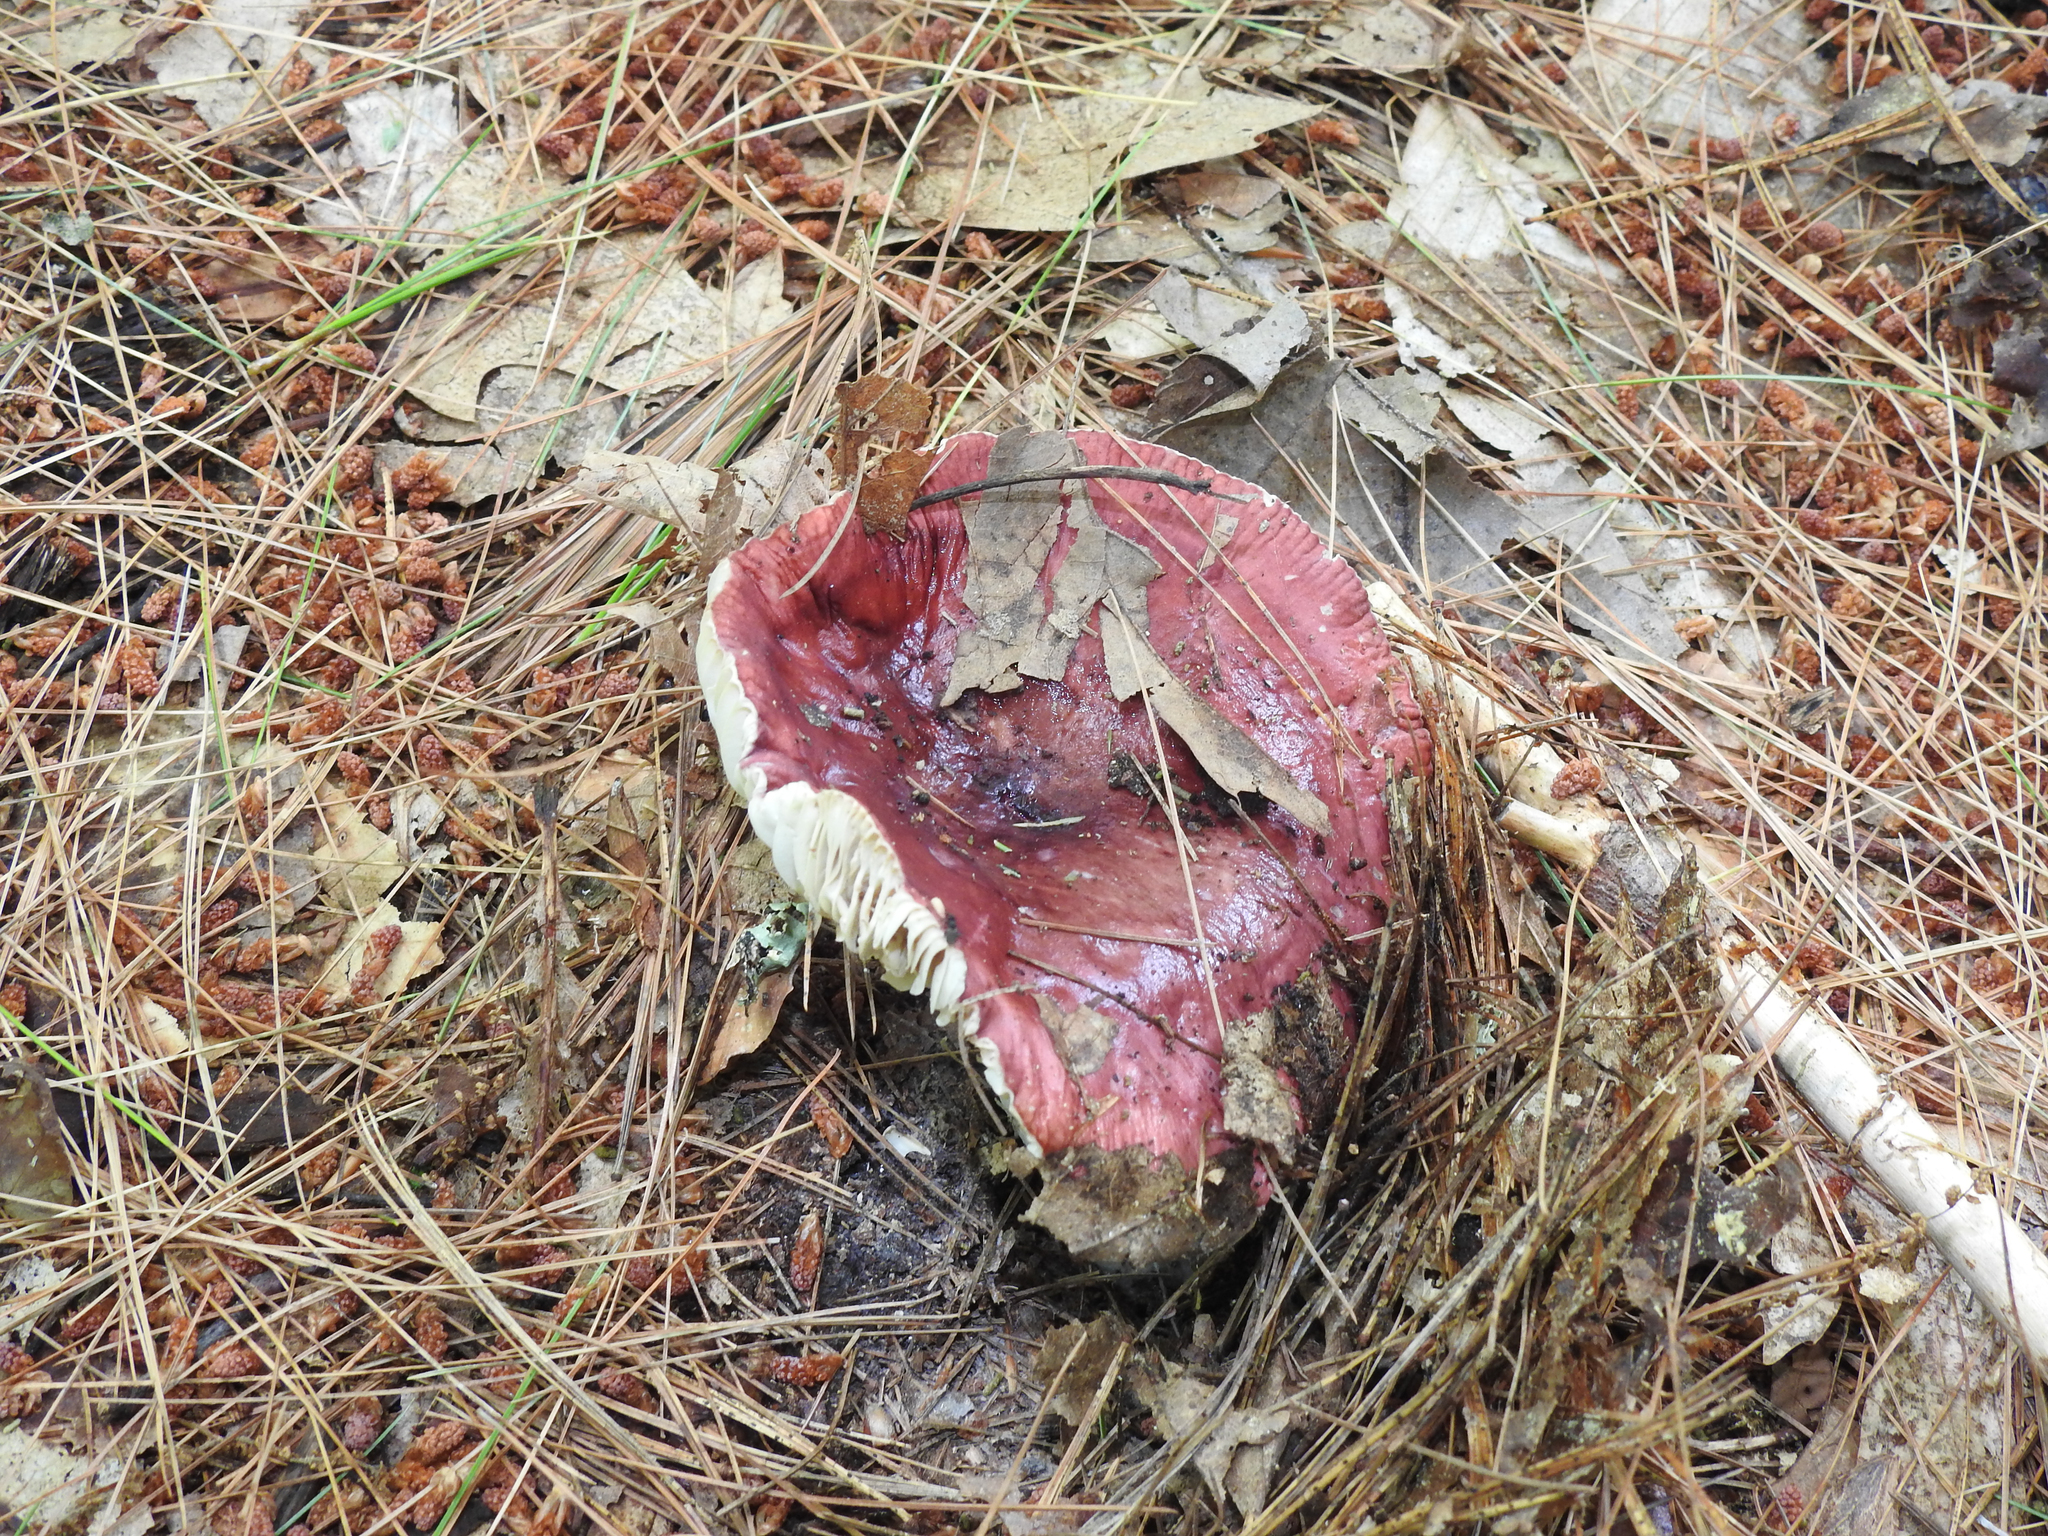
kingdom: Fungi
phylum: Basidiomycota
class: Agaricomycetes
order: Russulales
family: Russulaceae
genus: Russula
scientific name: Russula
